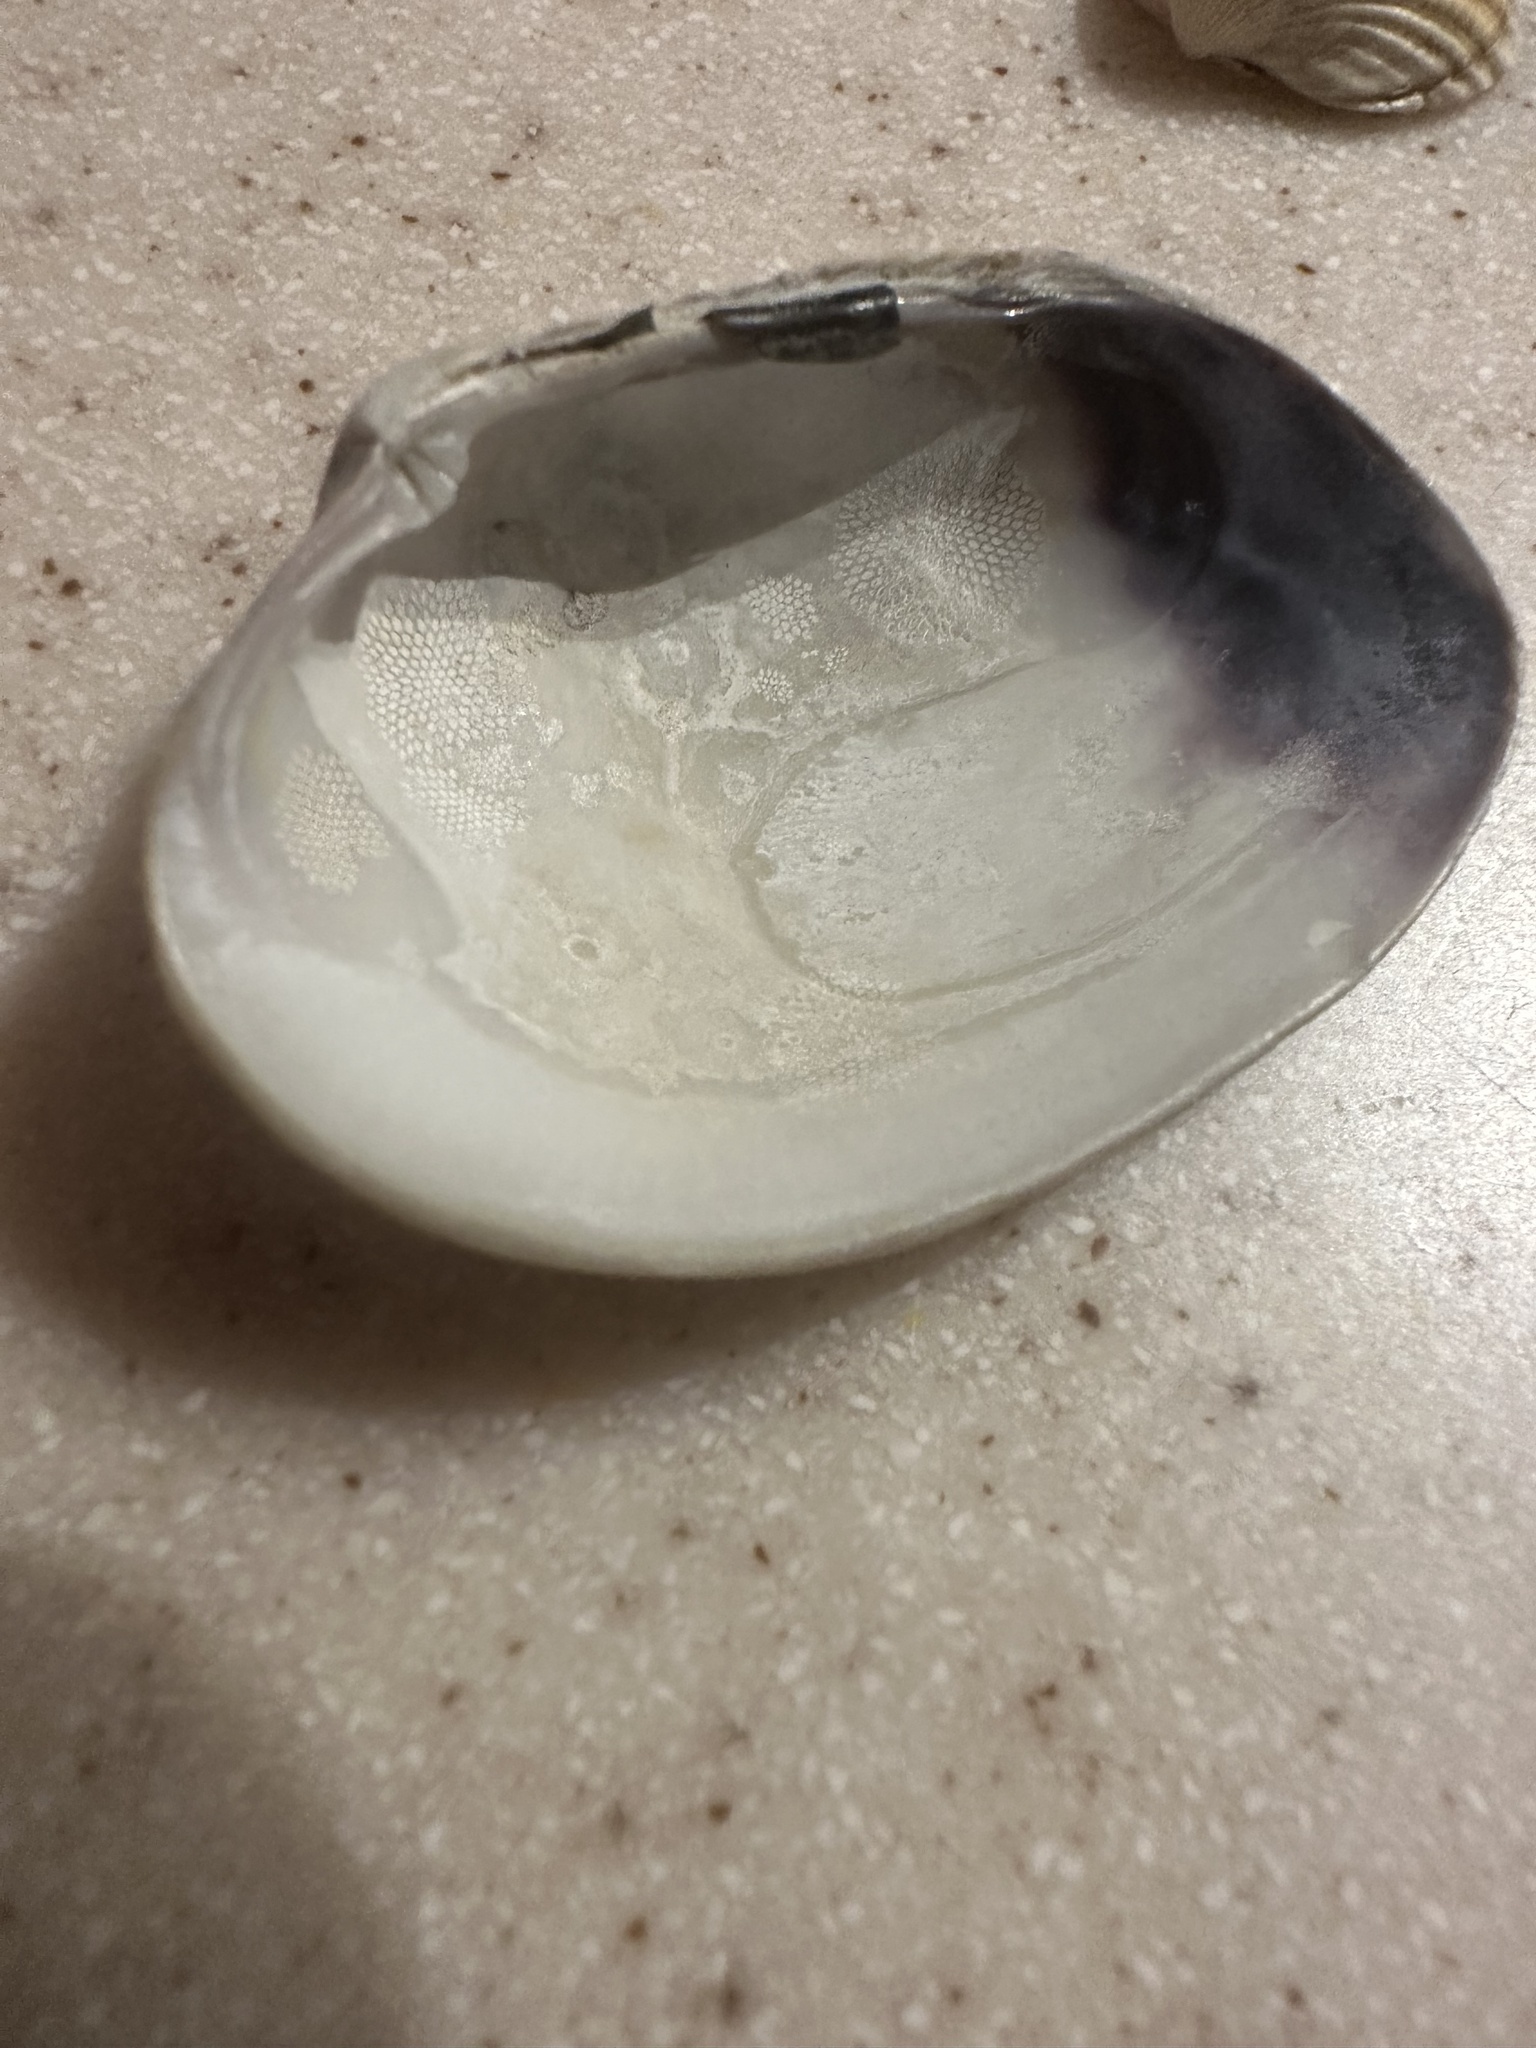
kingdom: Animalia
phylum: Mollusca
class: Bivalvia
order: Venerida
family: Veneridae
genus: Venerupis
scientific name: Venerupis corrugata
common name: Pullet carpet shell
